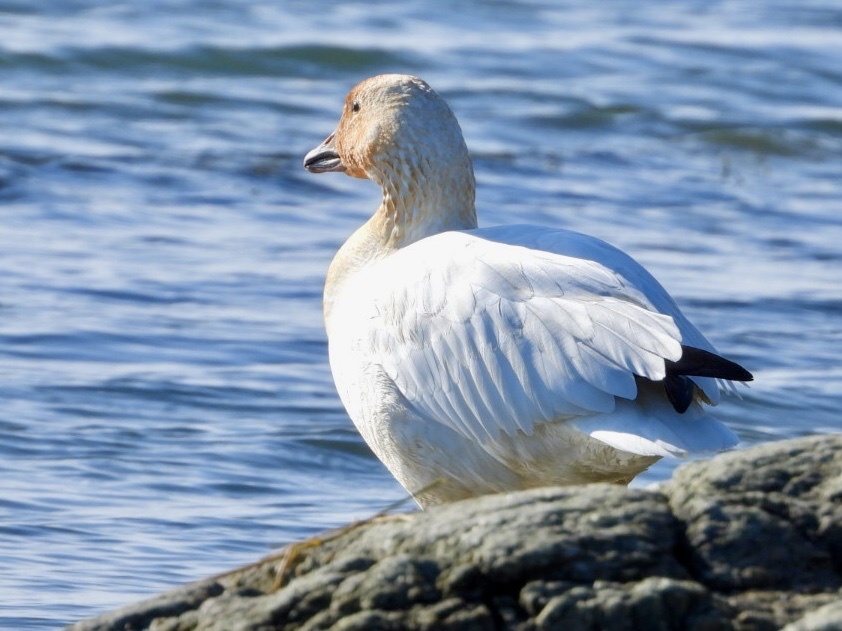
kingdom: Animalia
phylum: Chordata
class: Aves
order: Anseriformes
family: Anatidae
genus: Anser
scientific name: Anser caerulescens
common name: Snow goose
